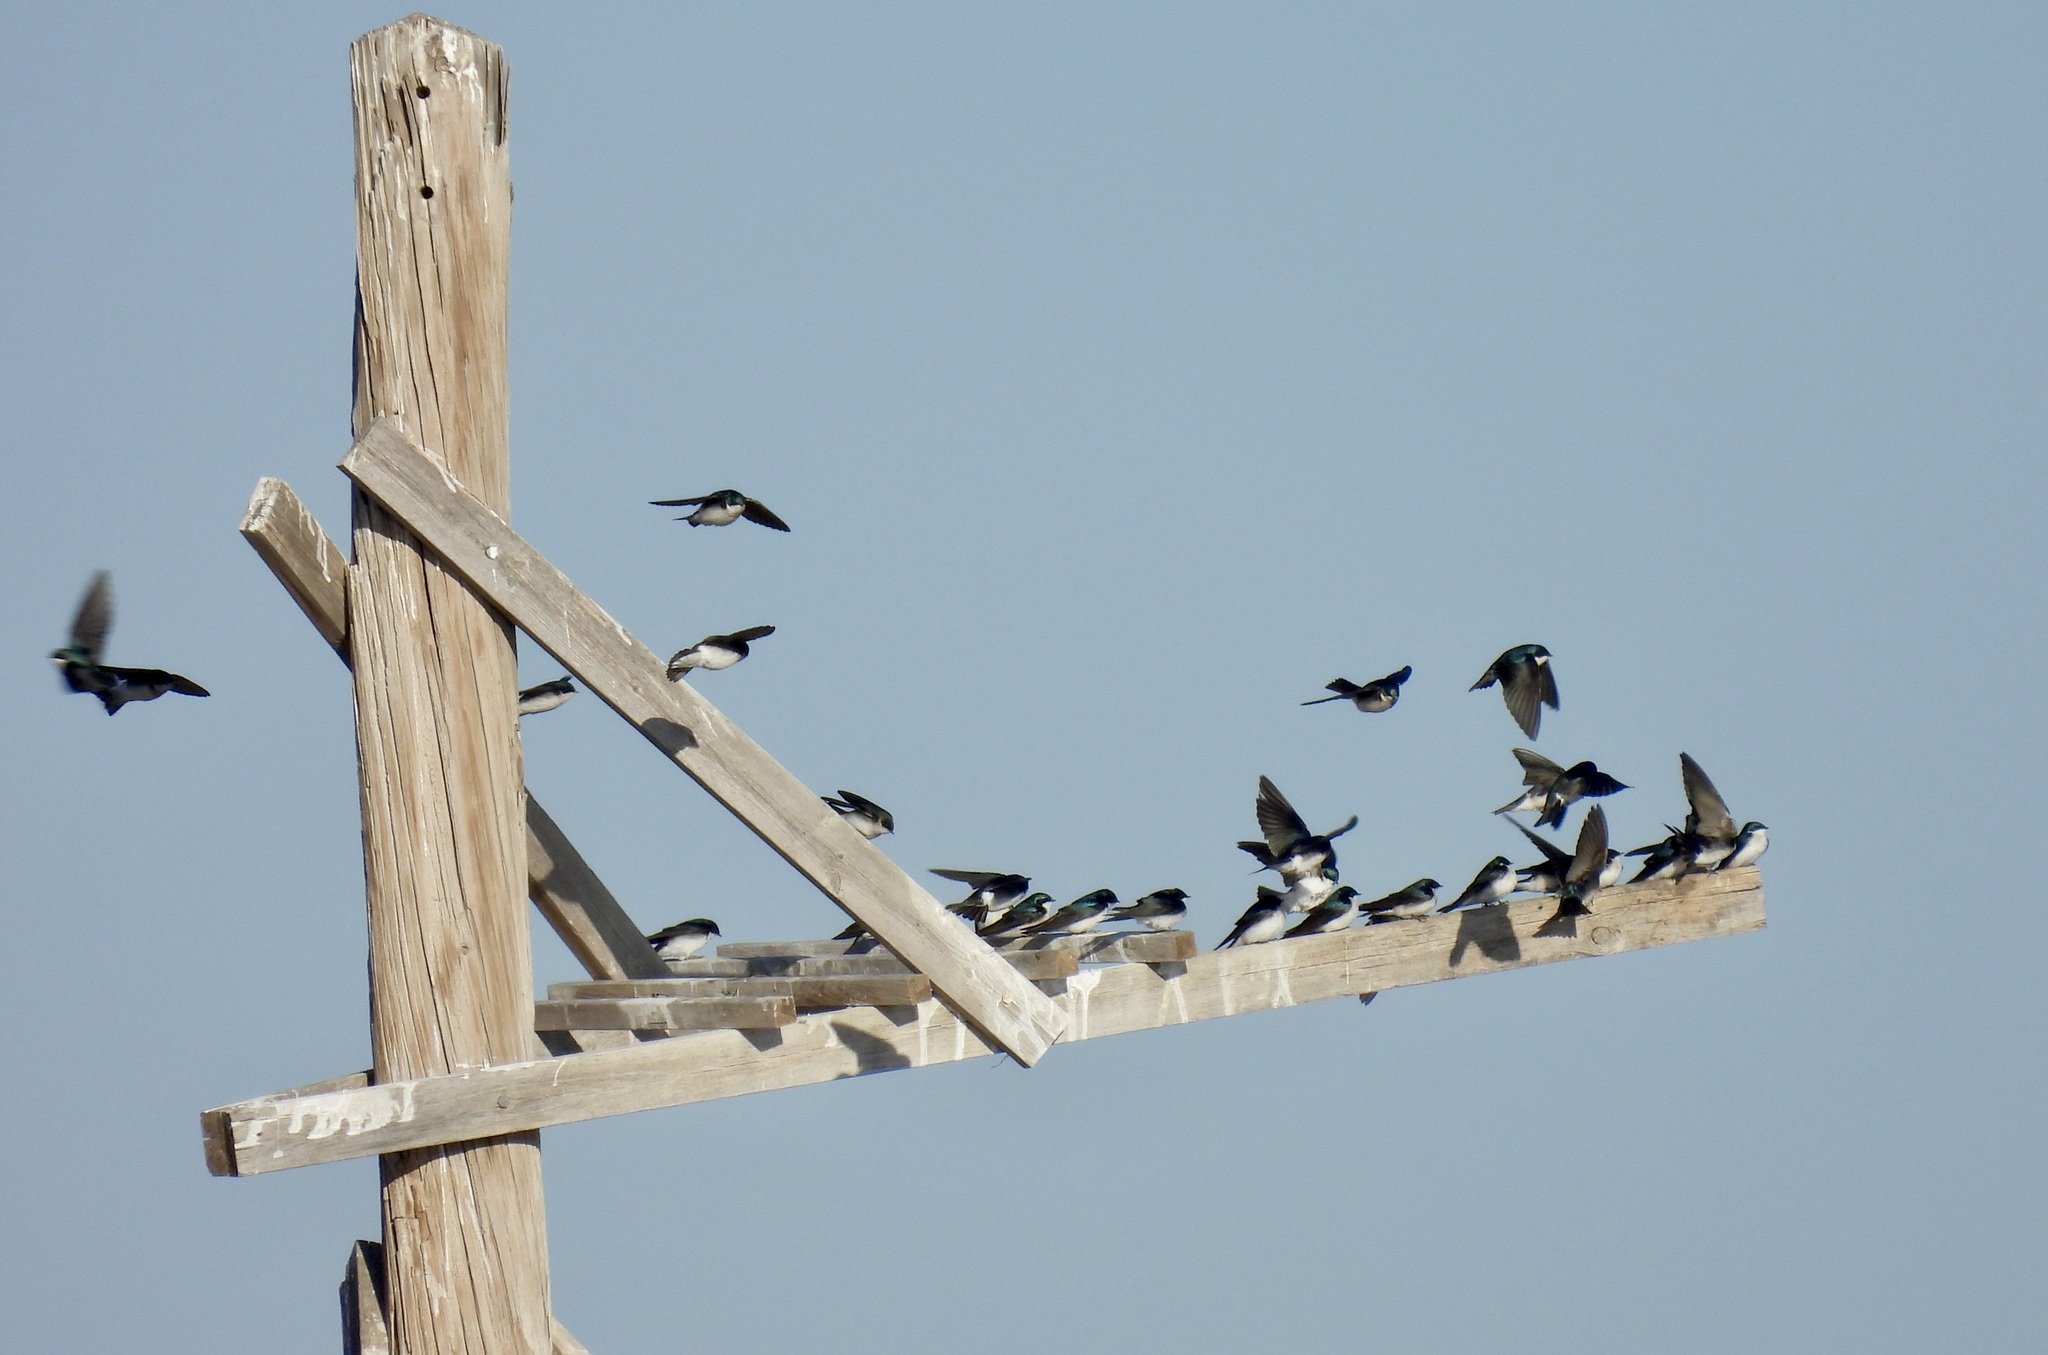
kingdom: Animalia
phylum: Chordata
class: Aves
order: Passeriformes
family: Hirundinidae
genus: Tachycineta
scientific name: Tachycineta bicolor
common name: Tree swallow
